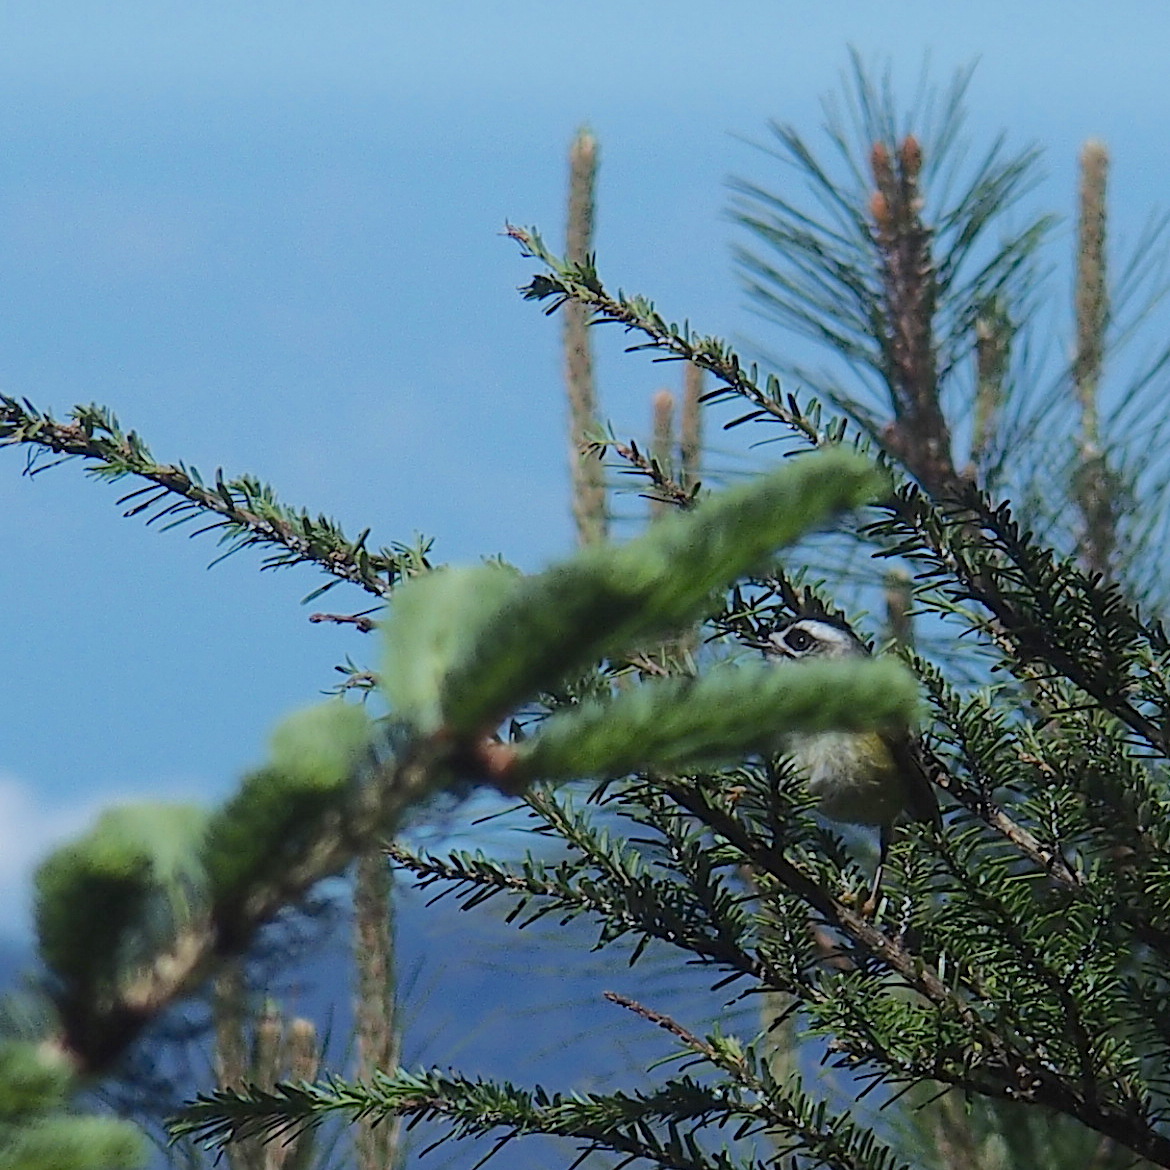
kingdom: Animalia
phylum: Chordata
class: Aves
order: Passeriformes
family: Regulidae
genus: Regulus
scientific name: Regulus goodfellowi
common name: Flamecrest
